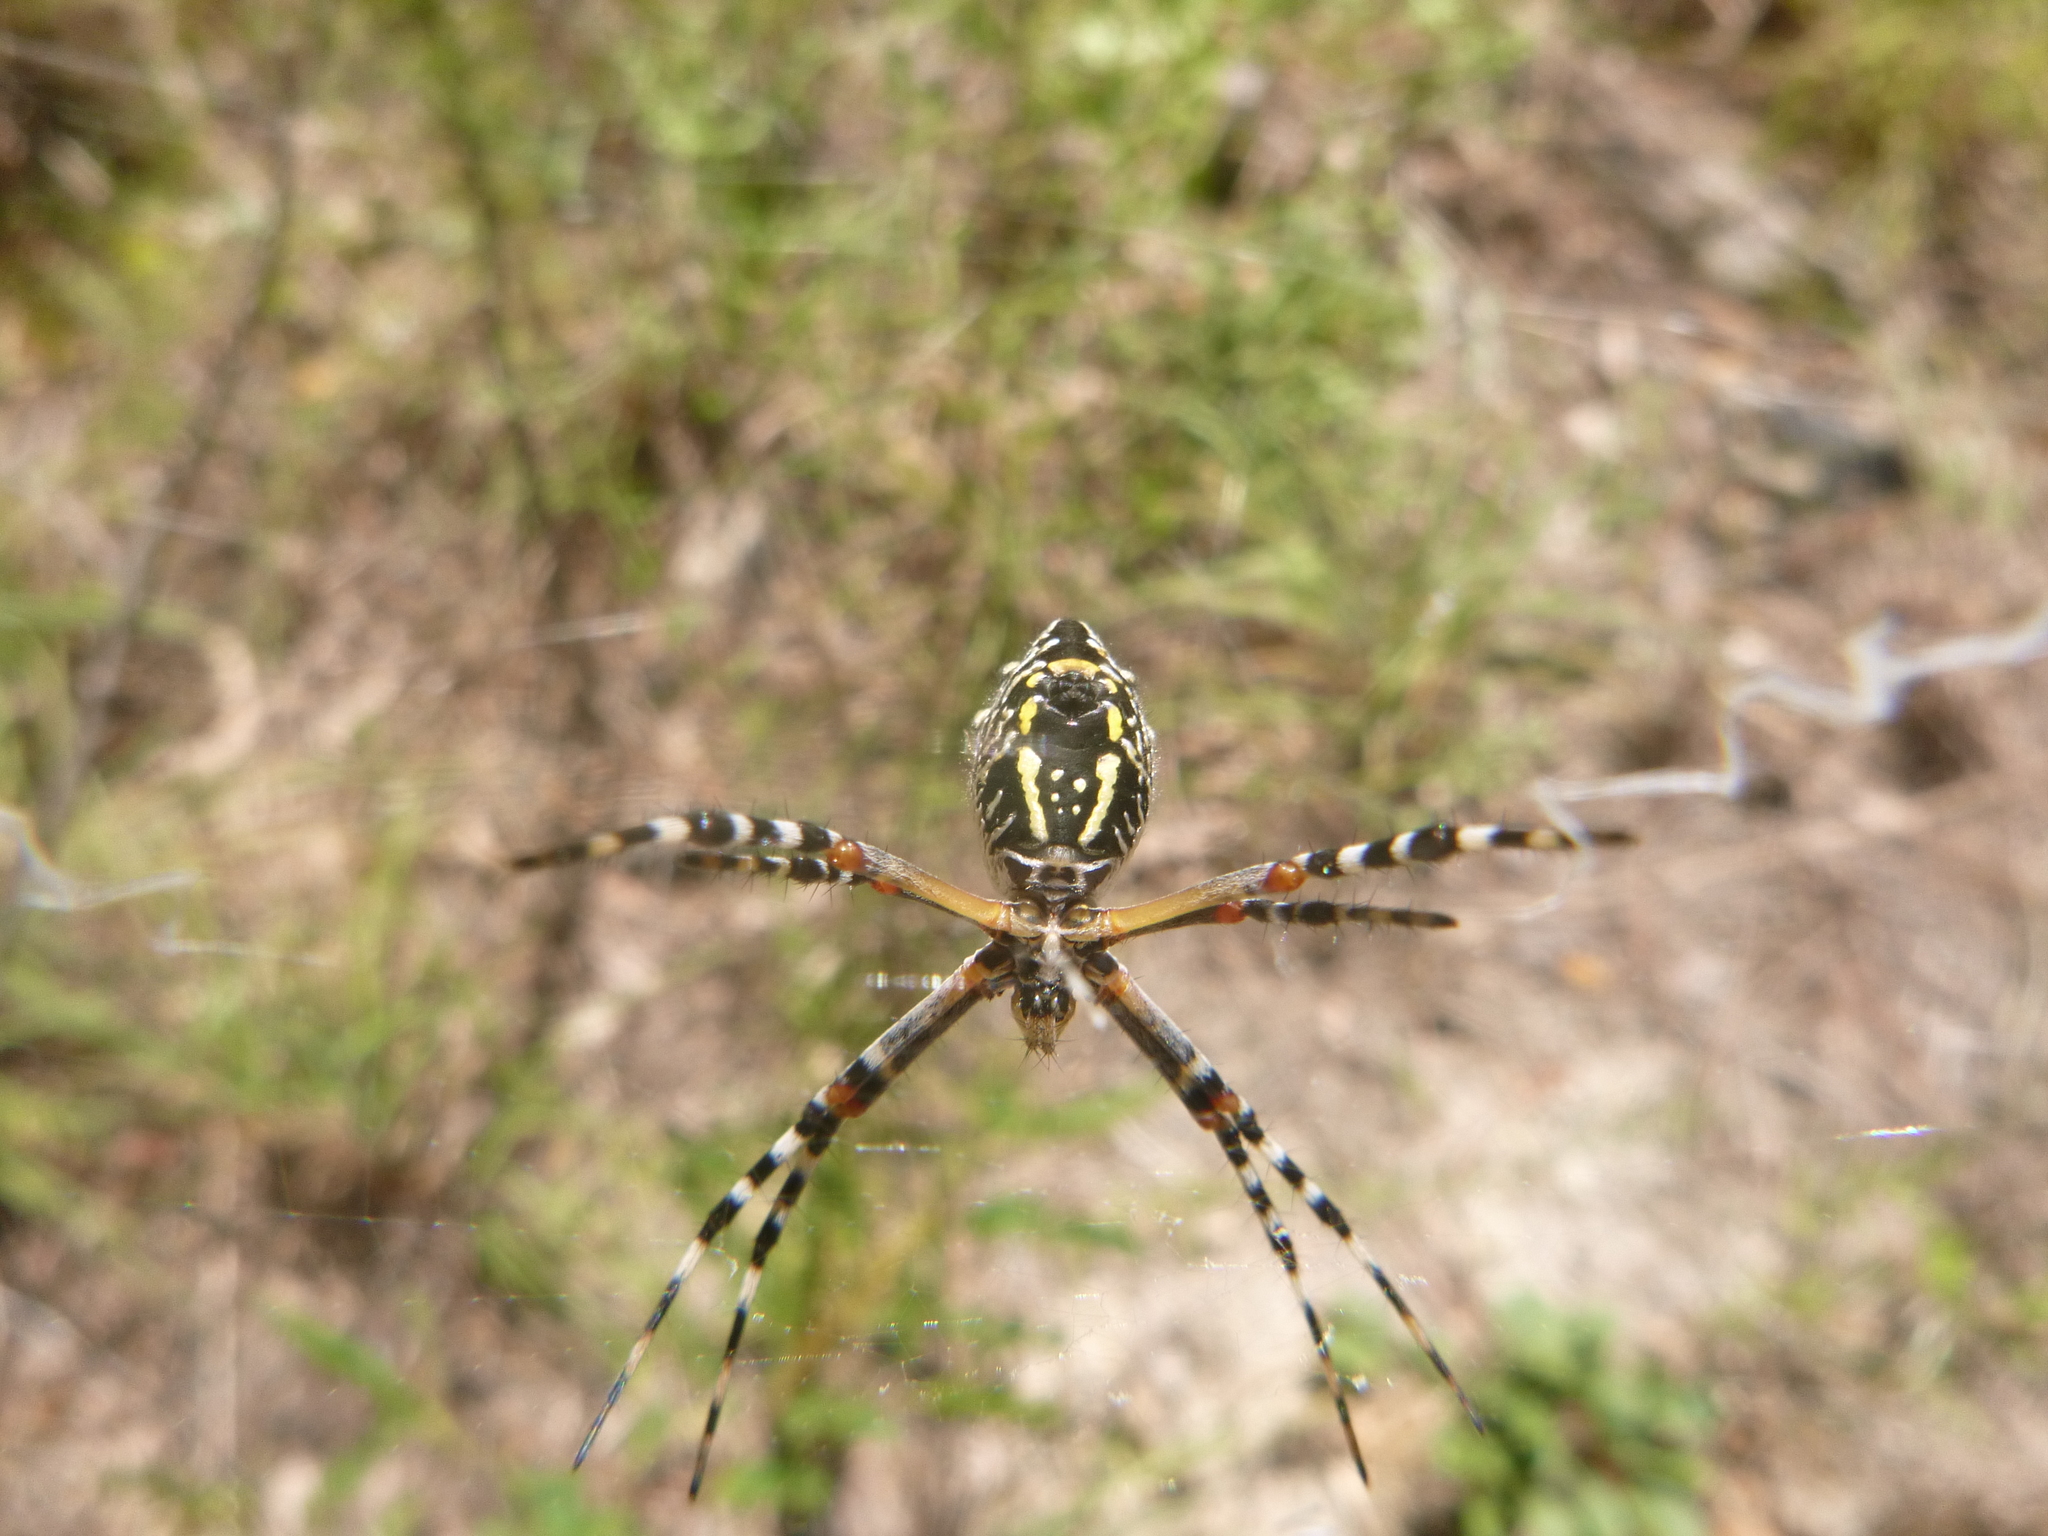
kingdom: Animalia
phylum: Arthropoda
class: Arachnida
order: Araneae
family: Araneidae
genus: Argiope
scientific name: Argiope florida
